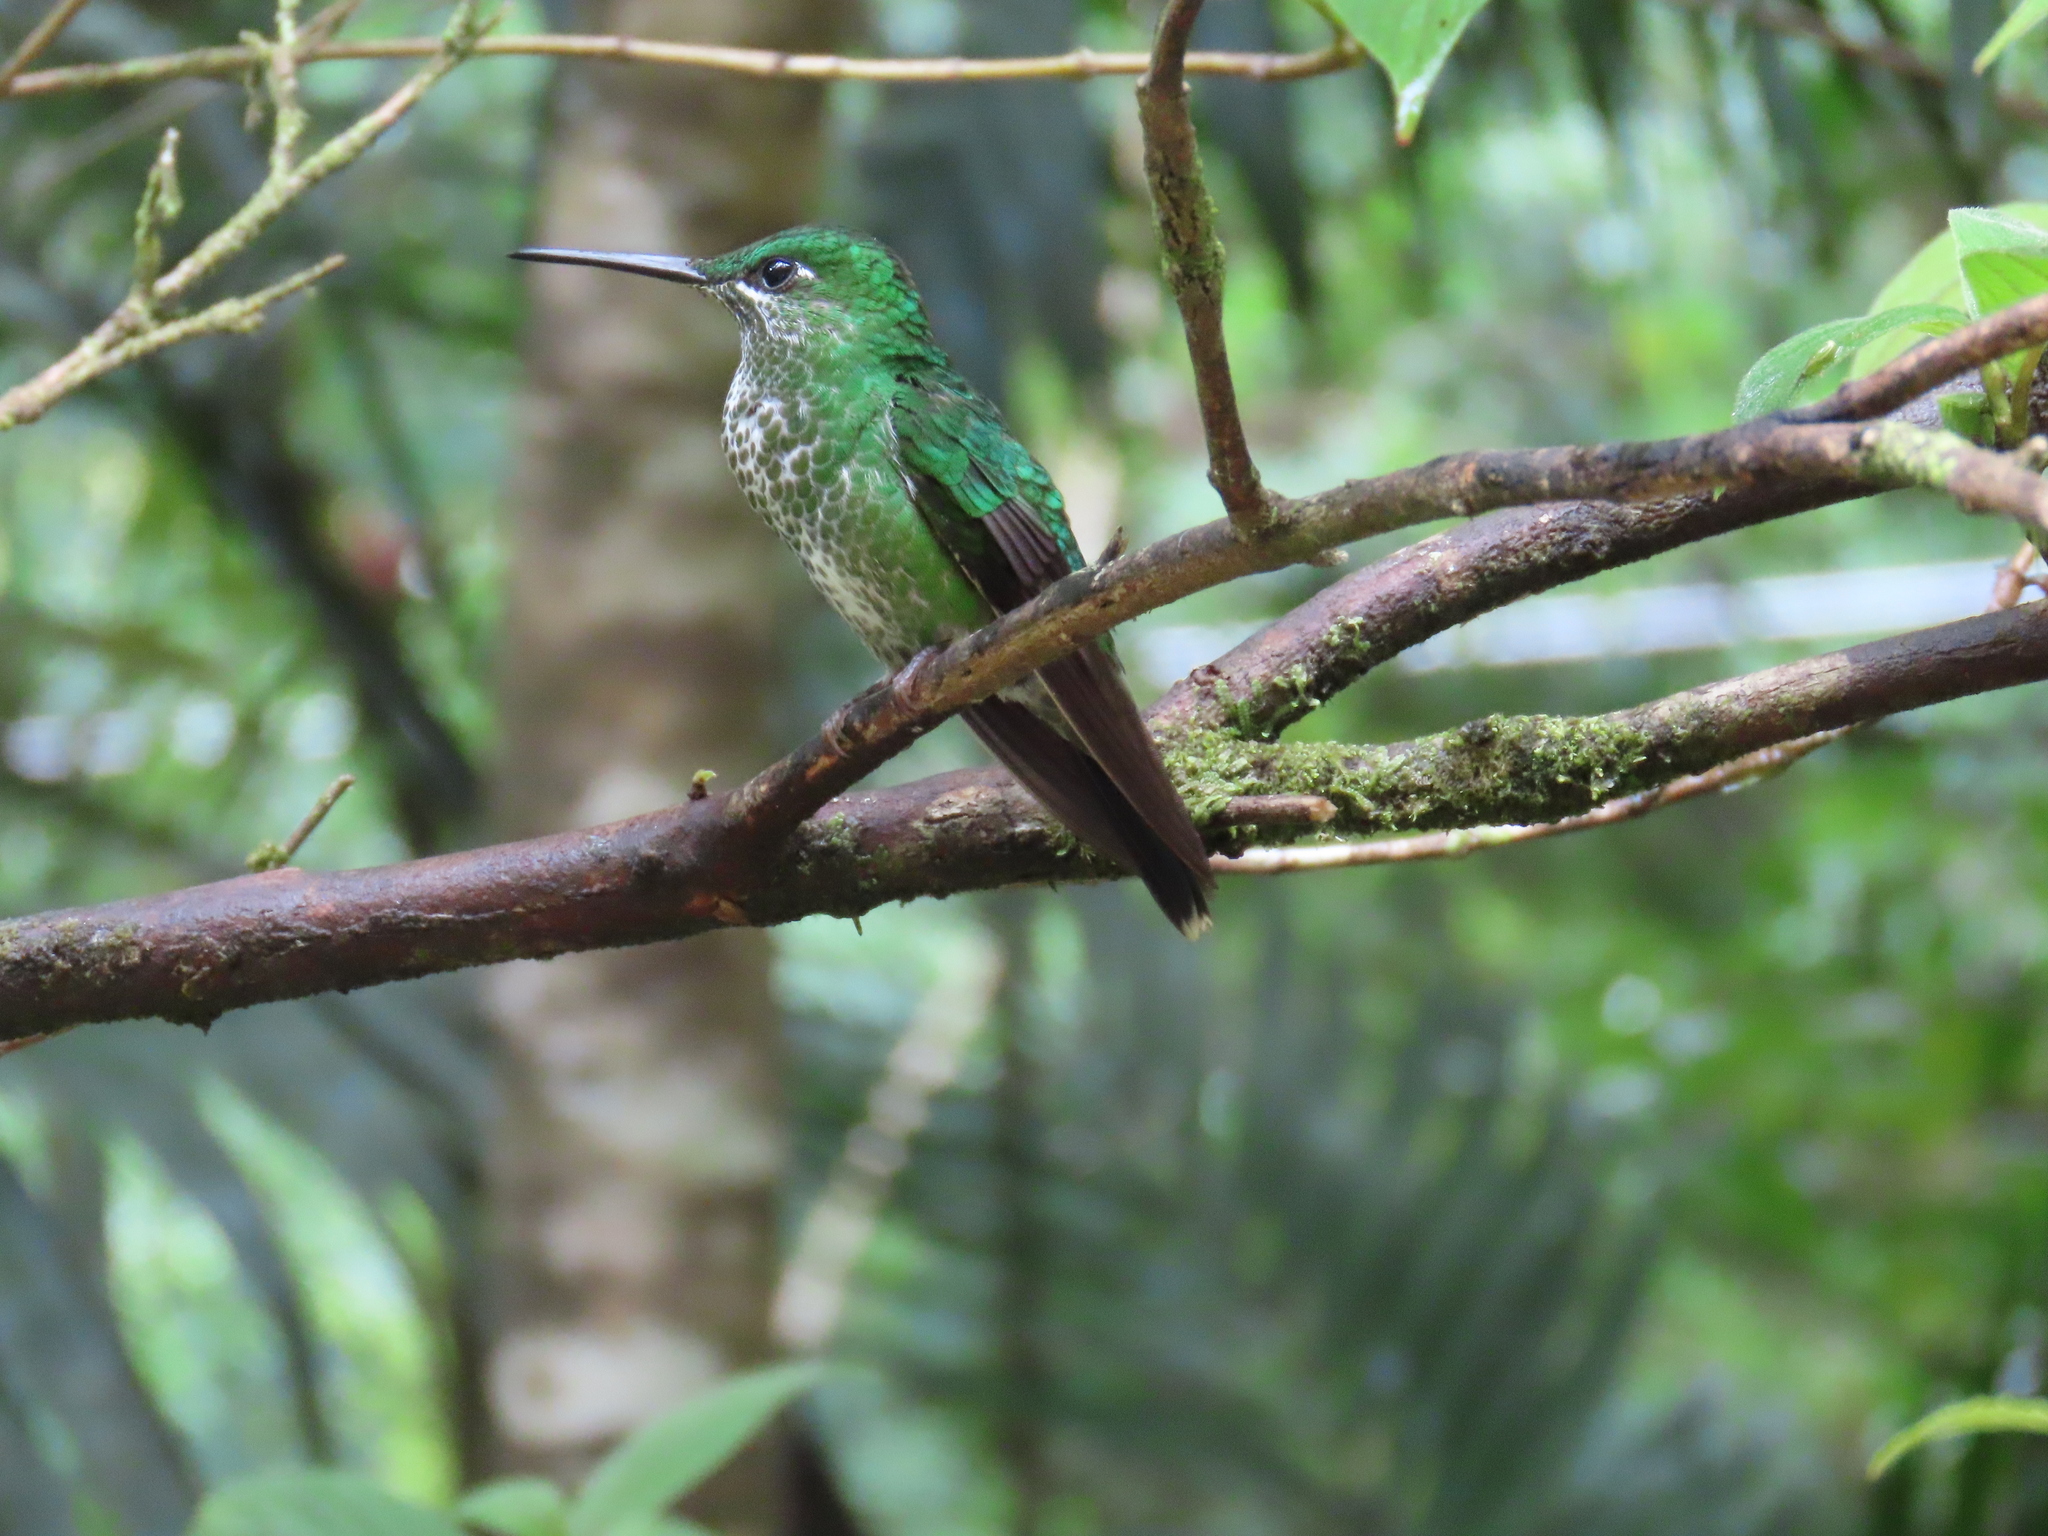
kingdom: Animalia
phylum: Chordata
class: Aves
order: Apodiformes
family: Trochilidae
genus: Heliodoxa
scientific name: Heliodoxa jacula
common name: Green-crowned brilliant
